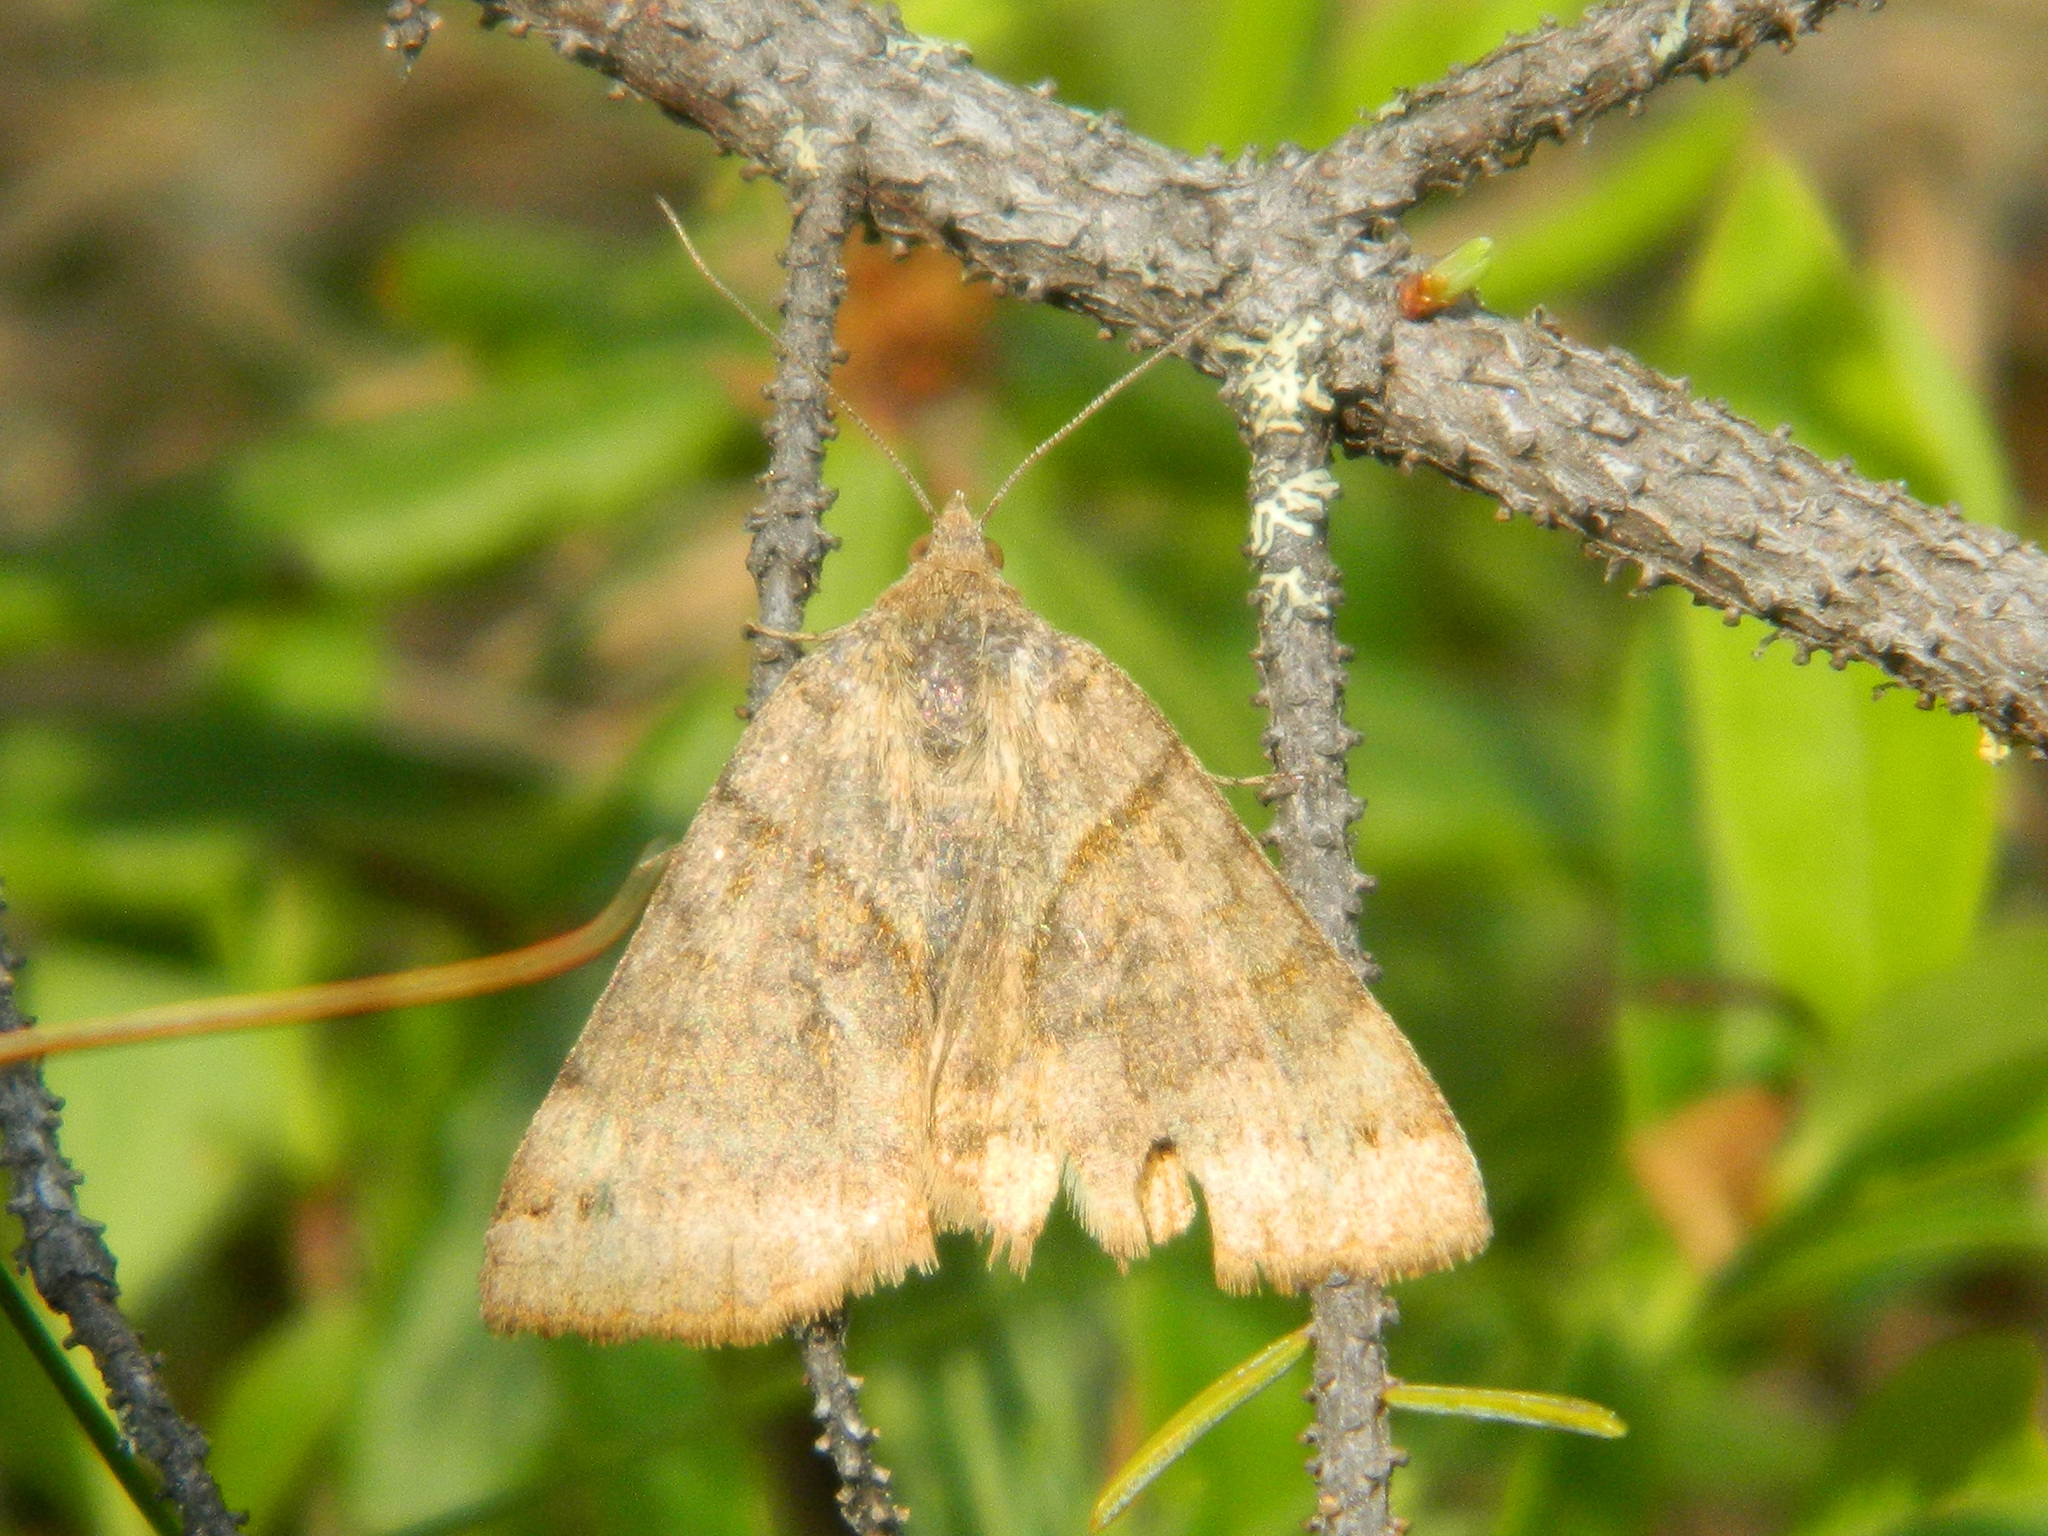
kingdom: Animalia
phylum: Arthropoda
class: Insecta
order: Lepidoptera
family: Erebidae
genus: Caenurgina
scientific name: Caenurgina erechtea
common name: Forage looper moth
